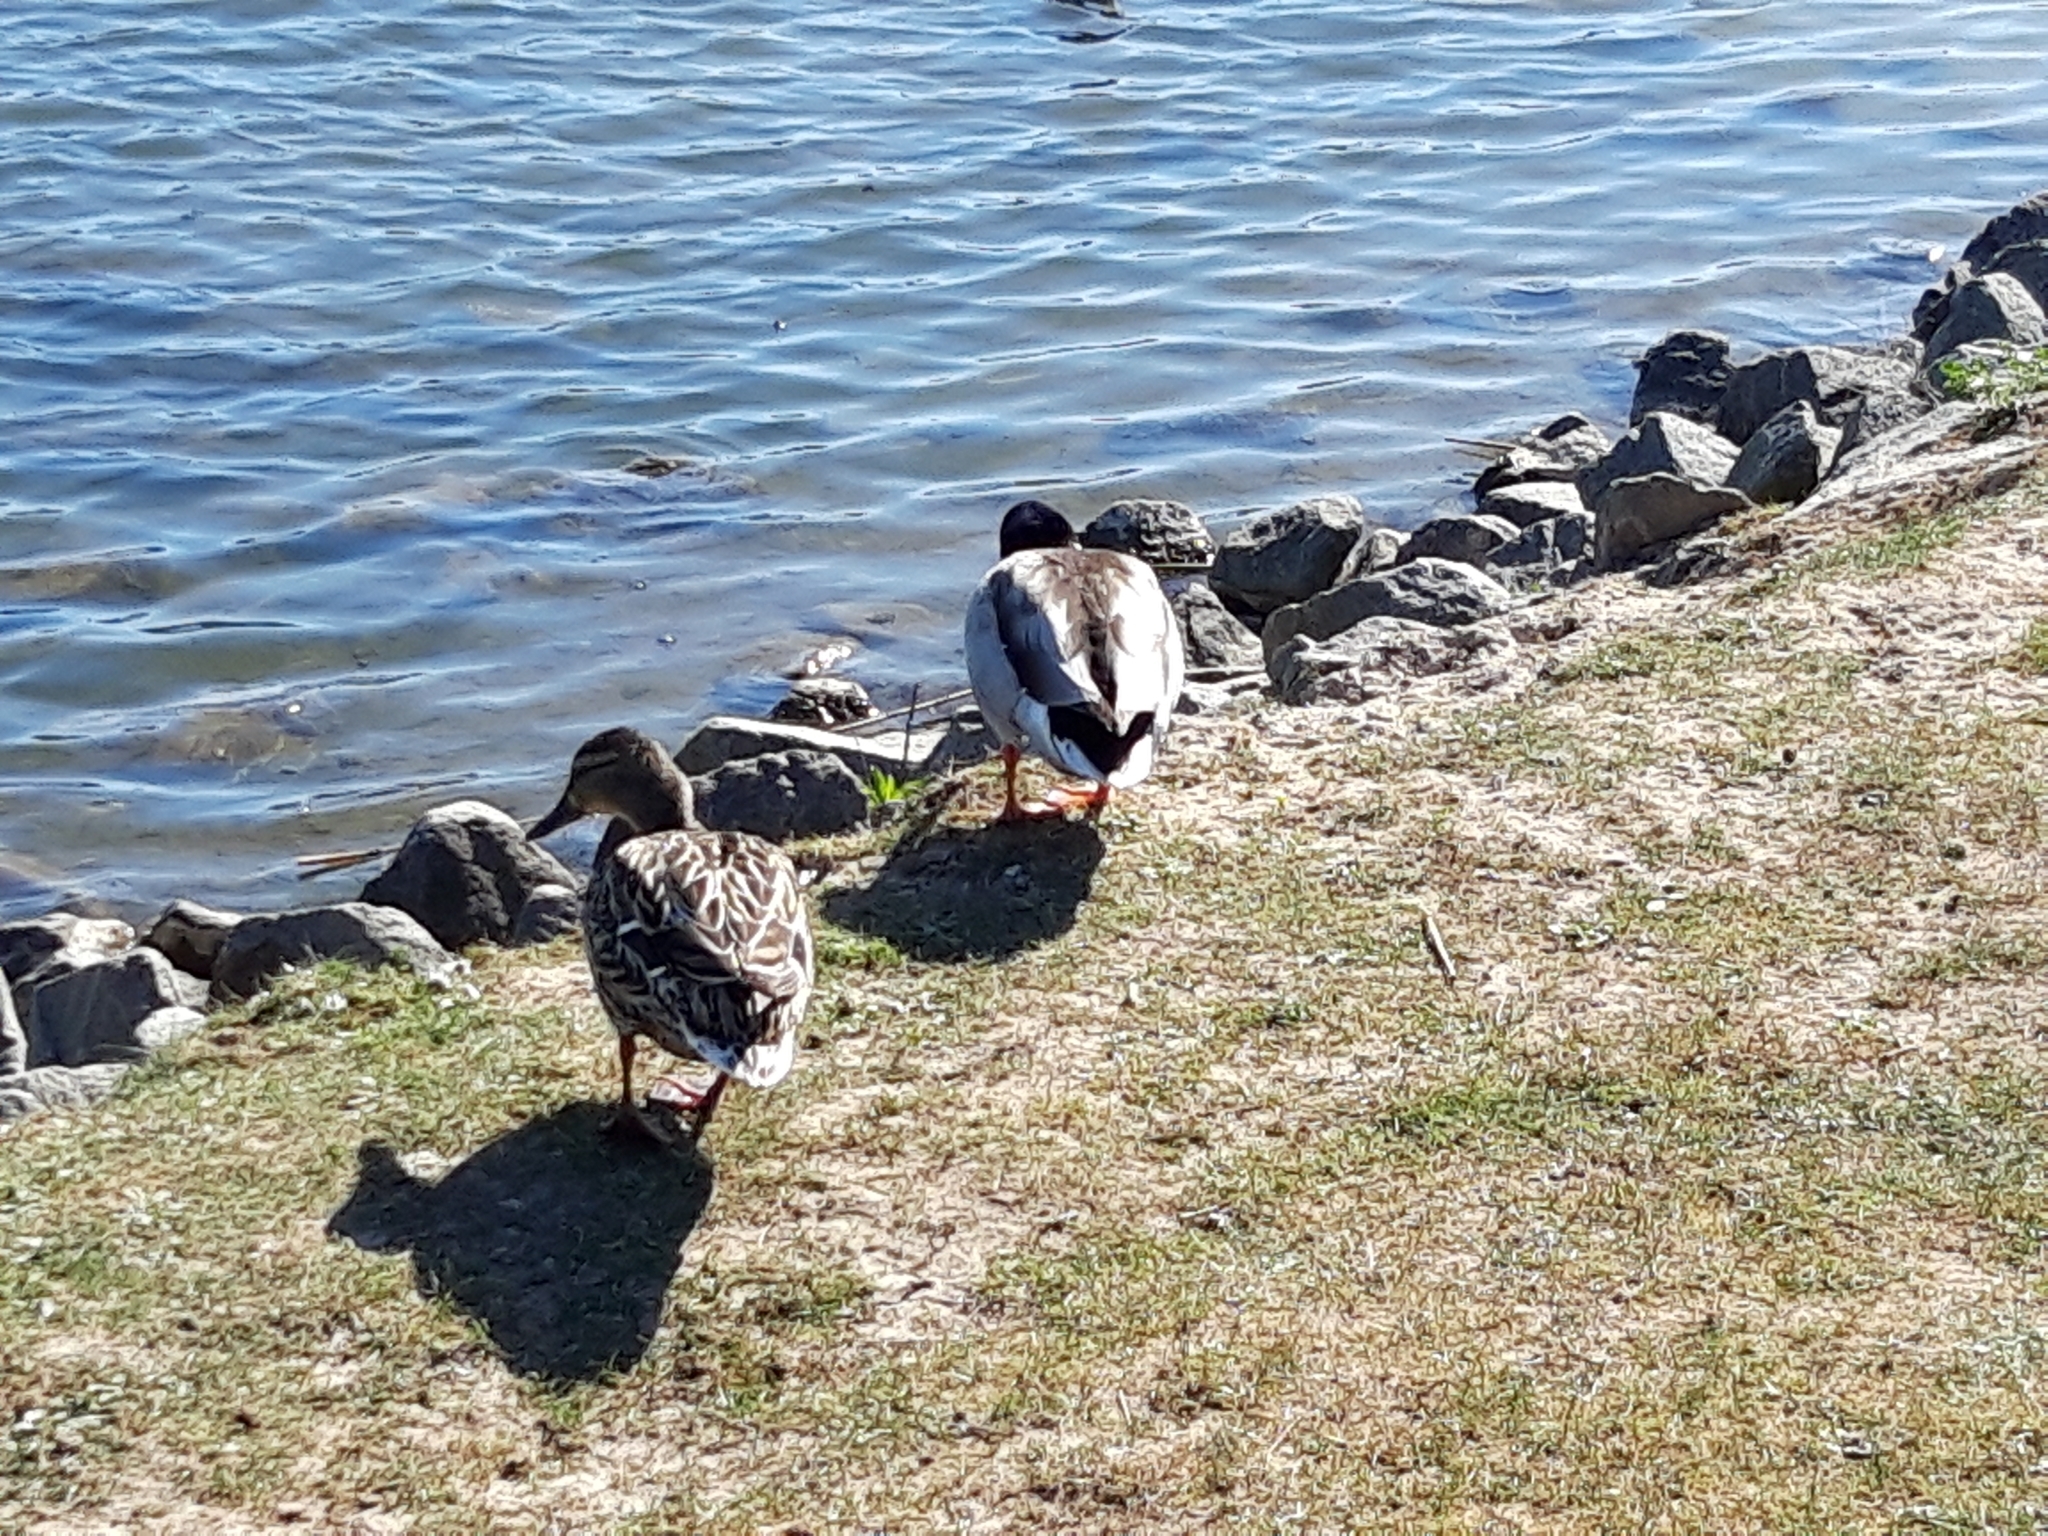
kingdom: Animalia
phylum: Chordata
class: Aves
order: Anseriformes
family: Anatidae
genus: Anas
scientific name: Anas platyrhynchos
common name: Mallard
